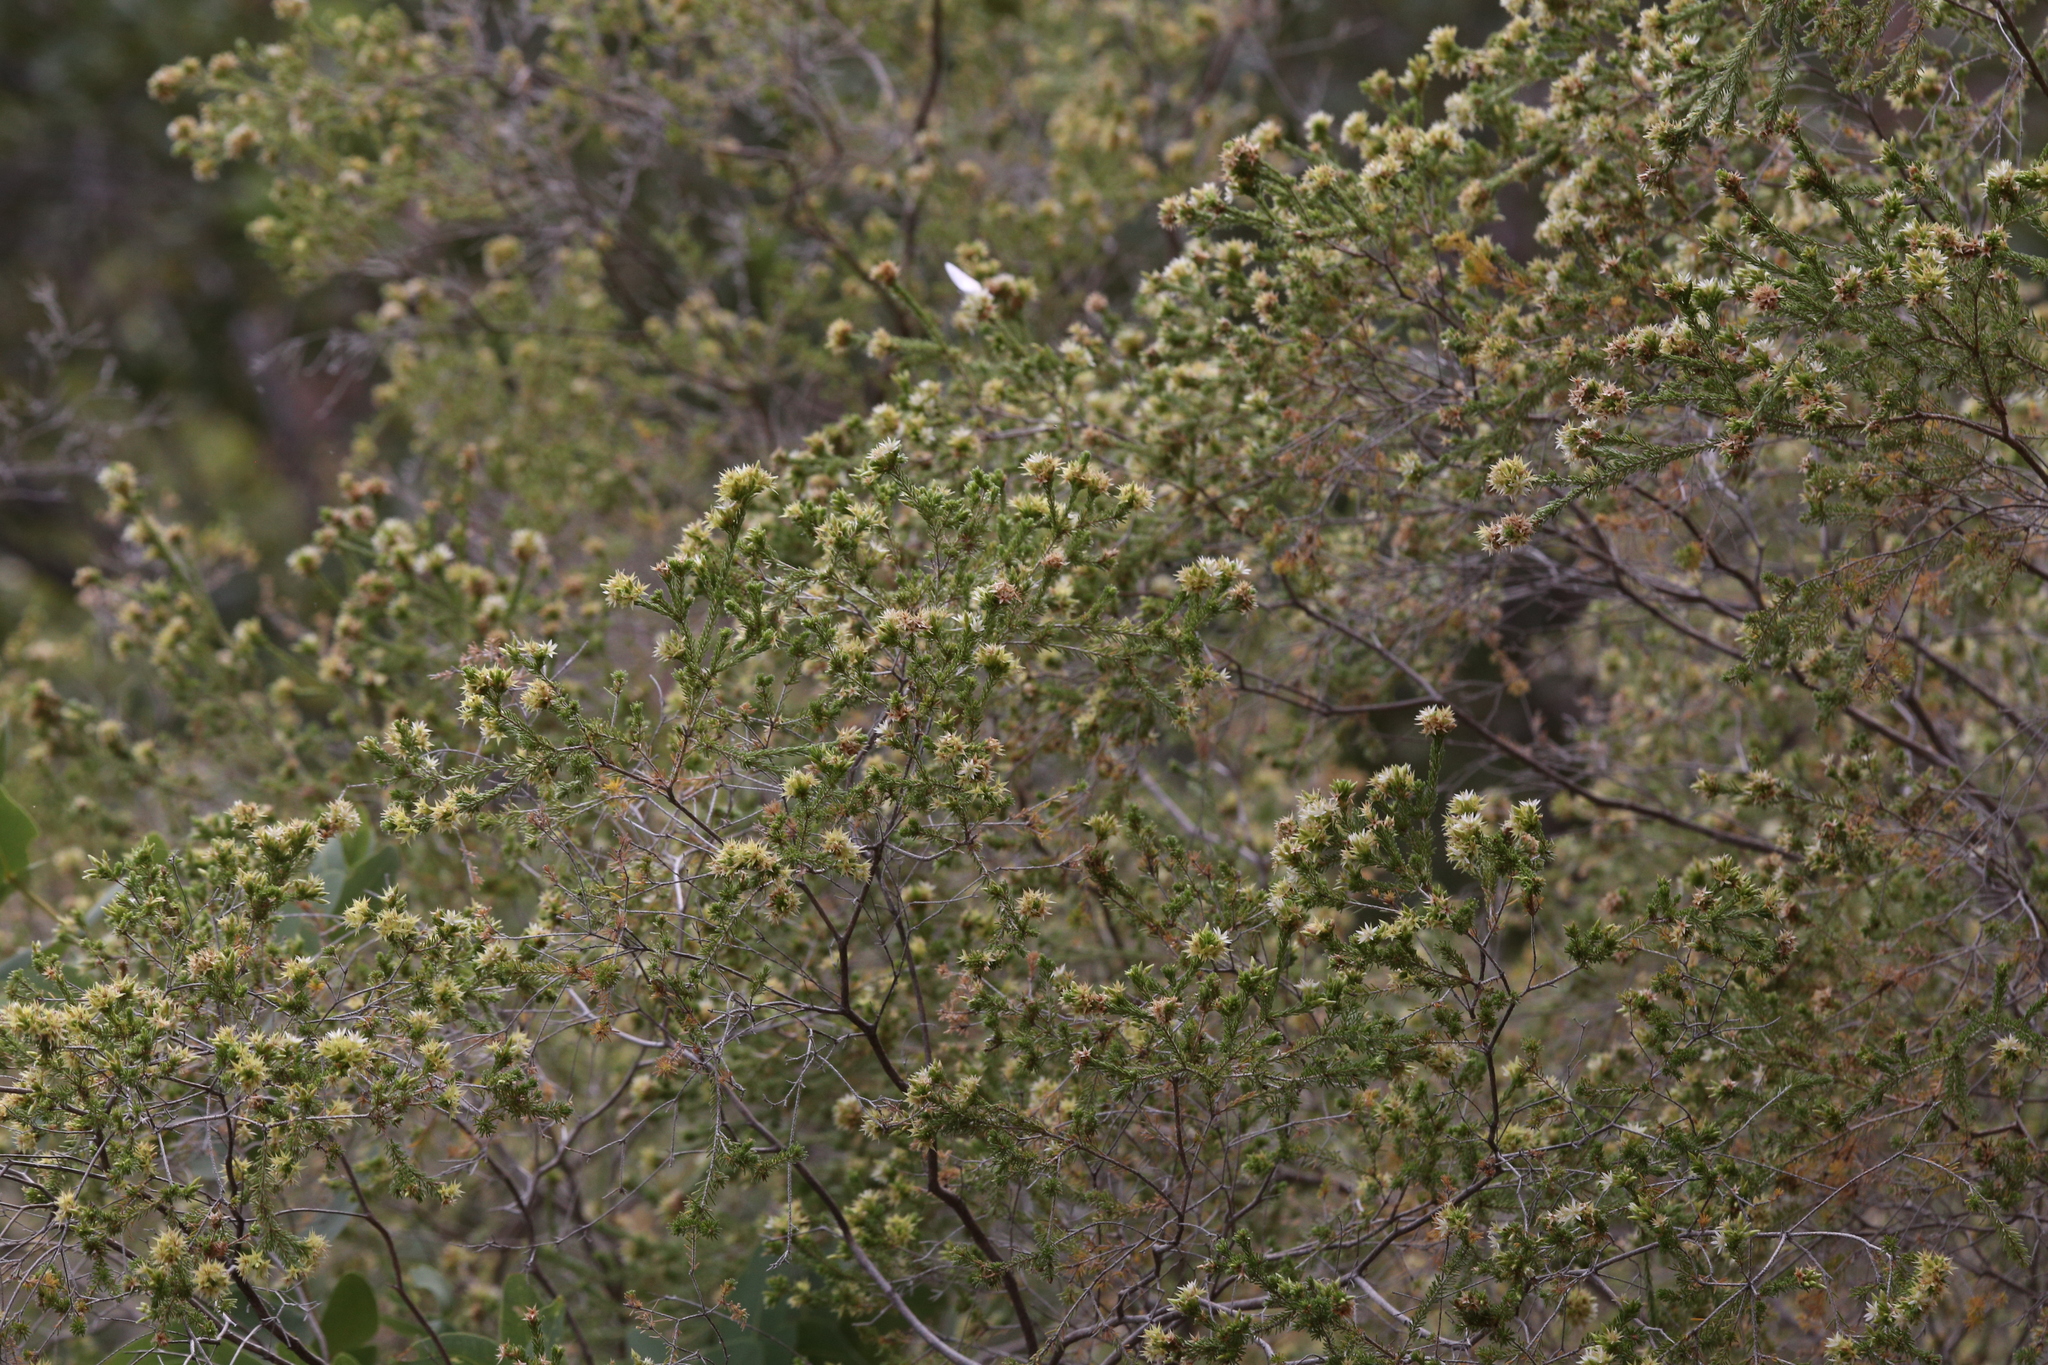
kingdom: Plantae
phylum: Tracheophyta
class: Magnoliopsida
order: Myrtales
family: Myrtaceae
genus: Calytrix
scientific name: Calytrix brownii
